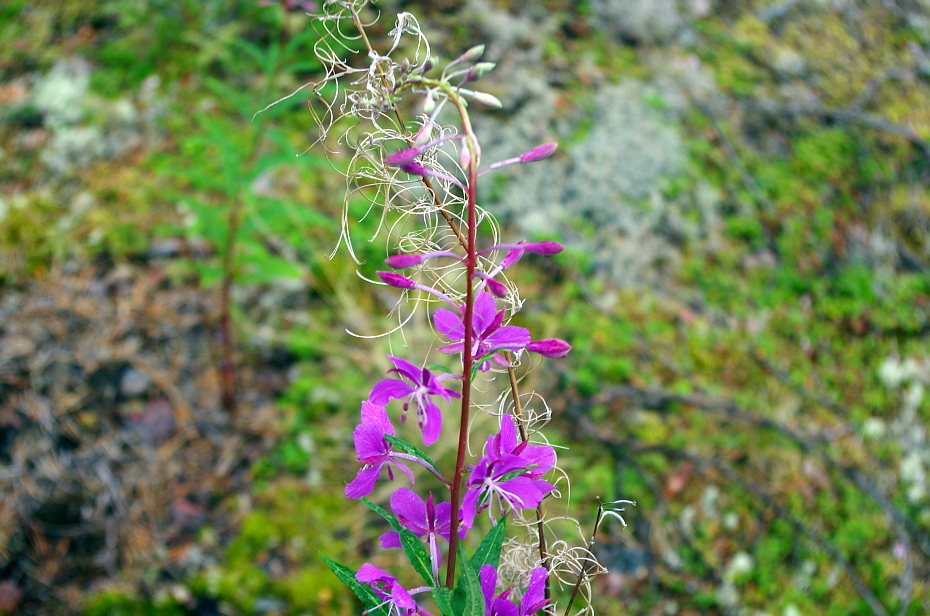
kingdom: Plantae
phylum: Tracheophyta
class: Magnoliopsida
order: Myrtales
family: Onagraceae
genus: Chamaenerion
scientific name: Chamaenerion angustifolium
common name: Fireweed
